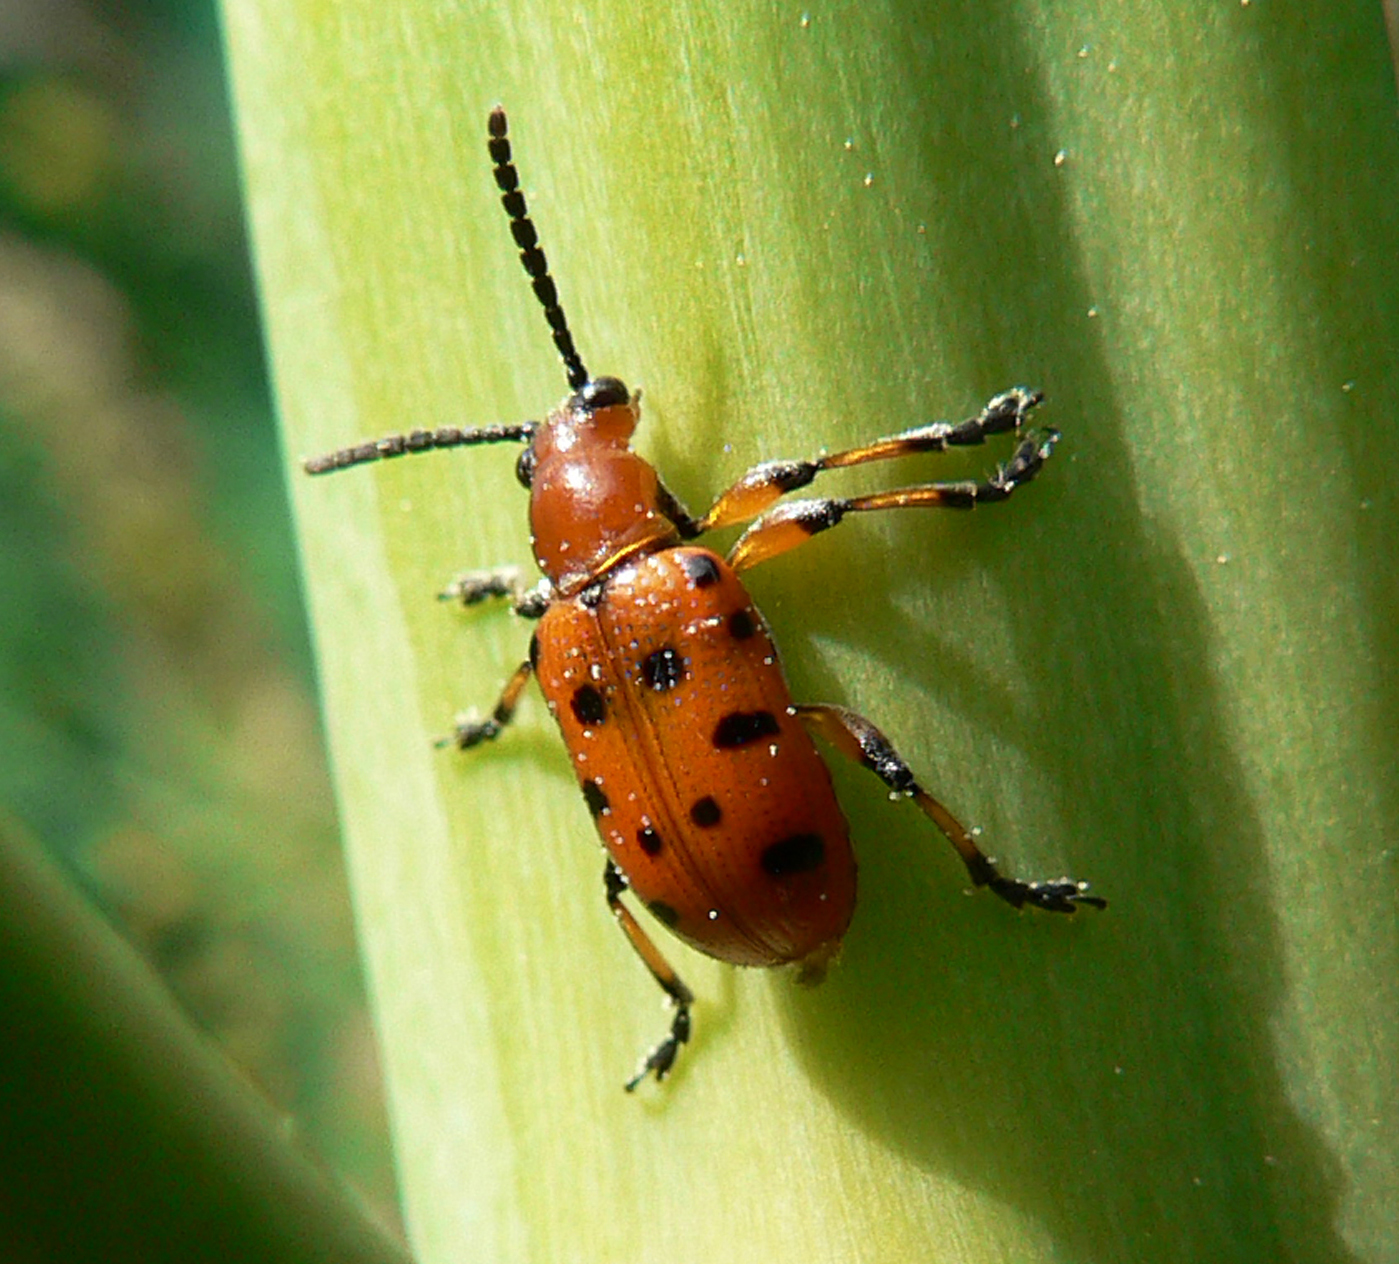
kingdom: Animalia
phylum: Arthropoda
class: Insecta
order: Coleoptera
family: Chrysomelidae
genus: Crioceris
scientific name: Crioceris duodecimpunctata
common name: Twelve-spotted asparagus beetle
